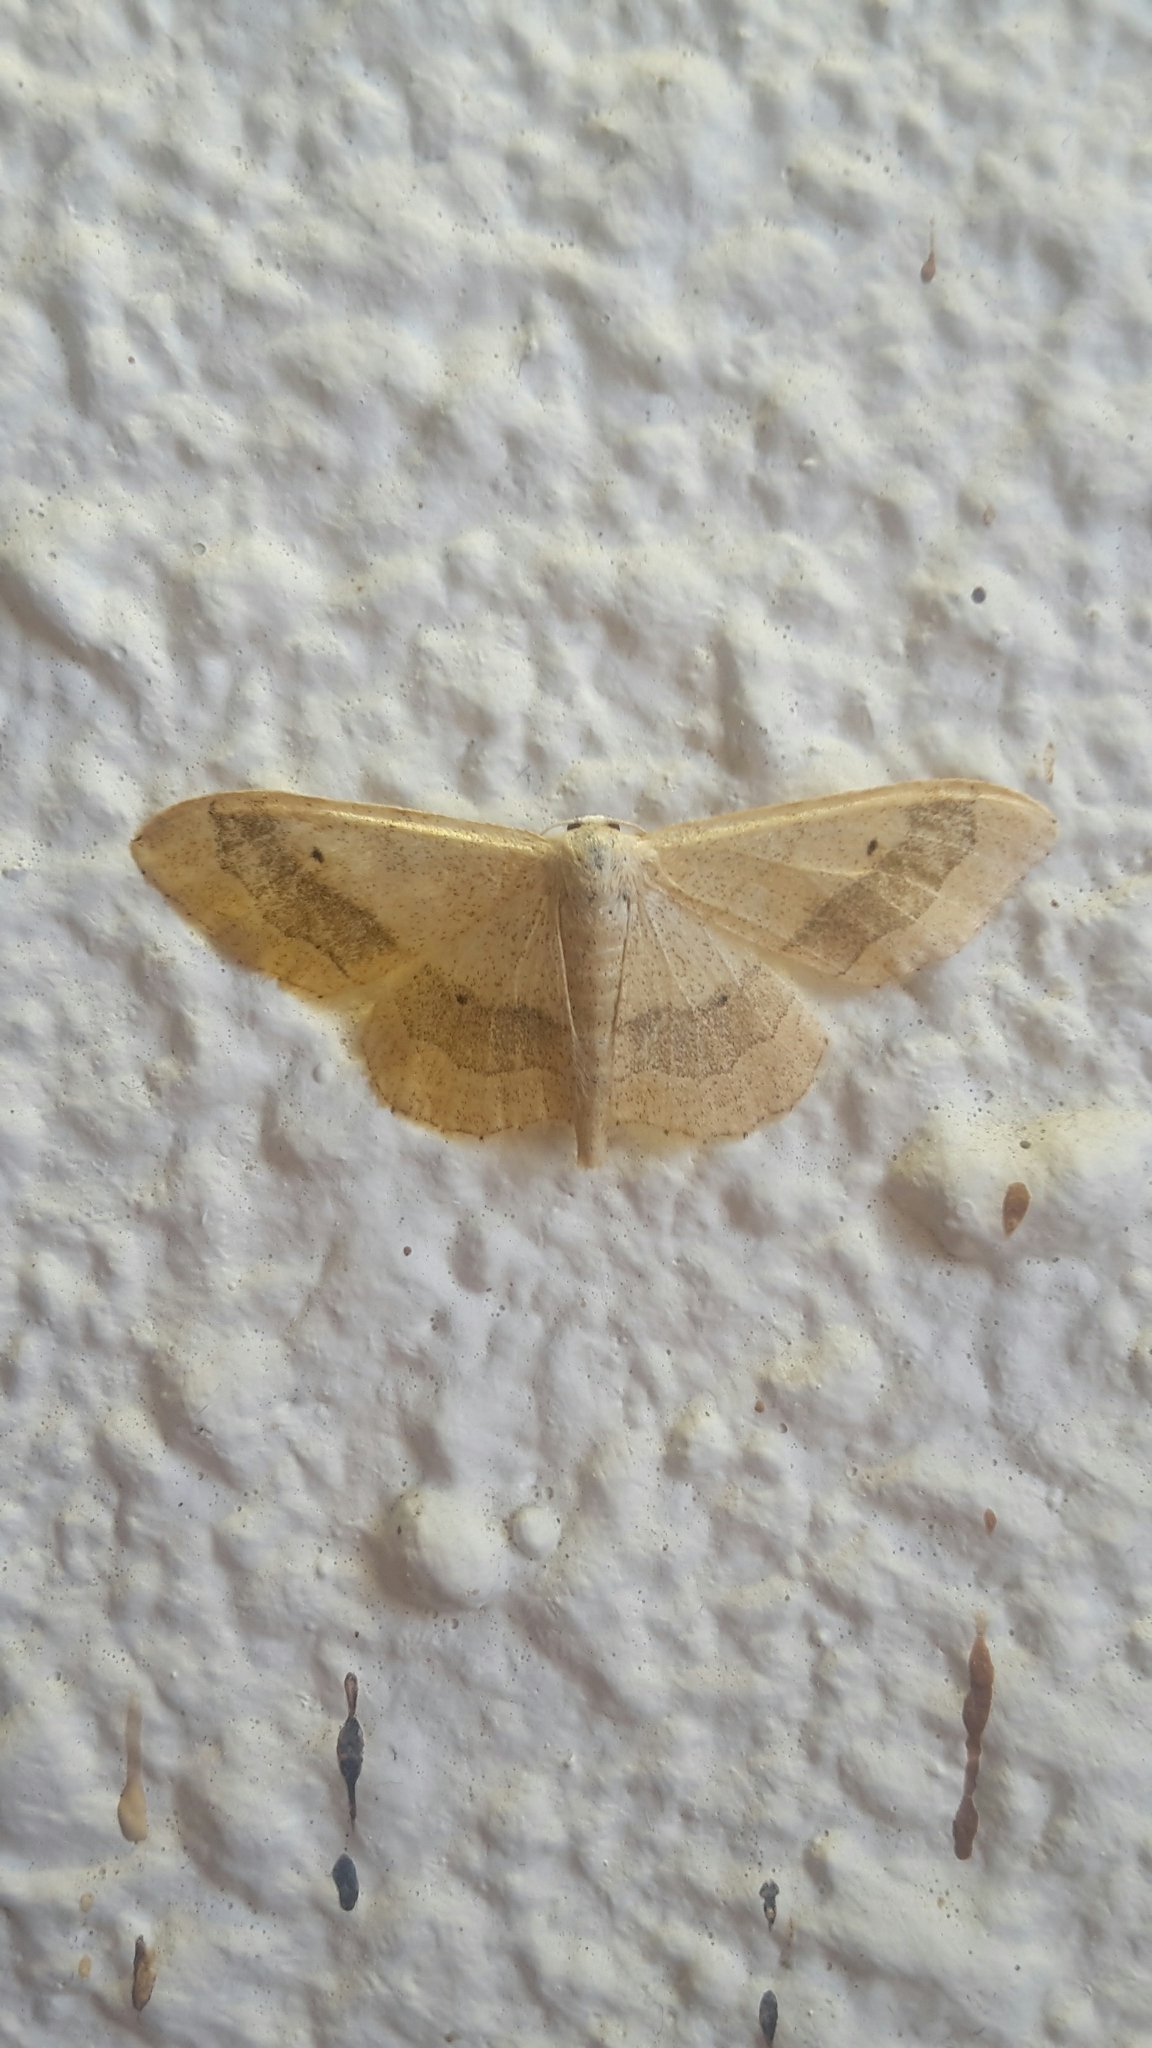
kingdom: Animalia
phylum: Arthropoda
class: Insecta
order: Lepidoptera
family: Geometridae
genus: Idaea
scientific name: Idaea aversata
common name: Riband wave
